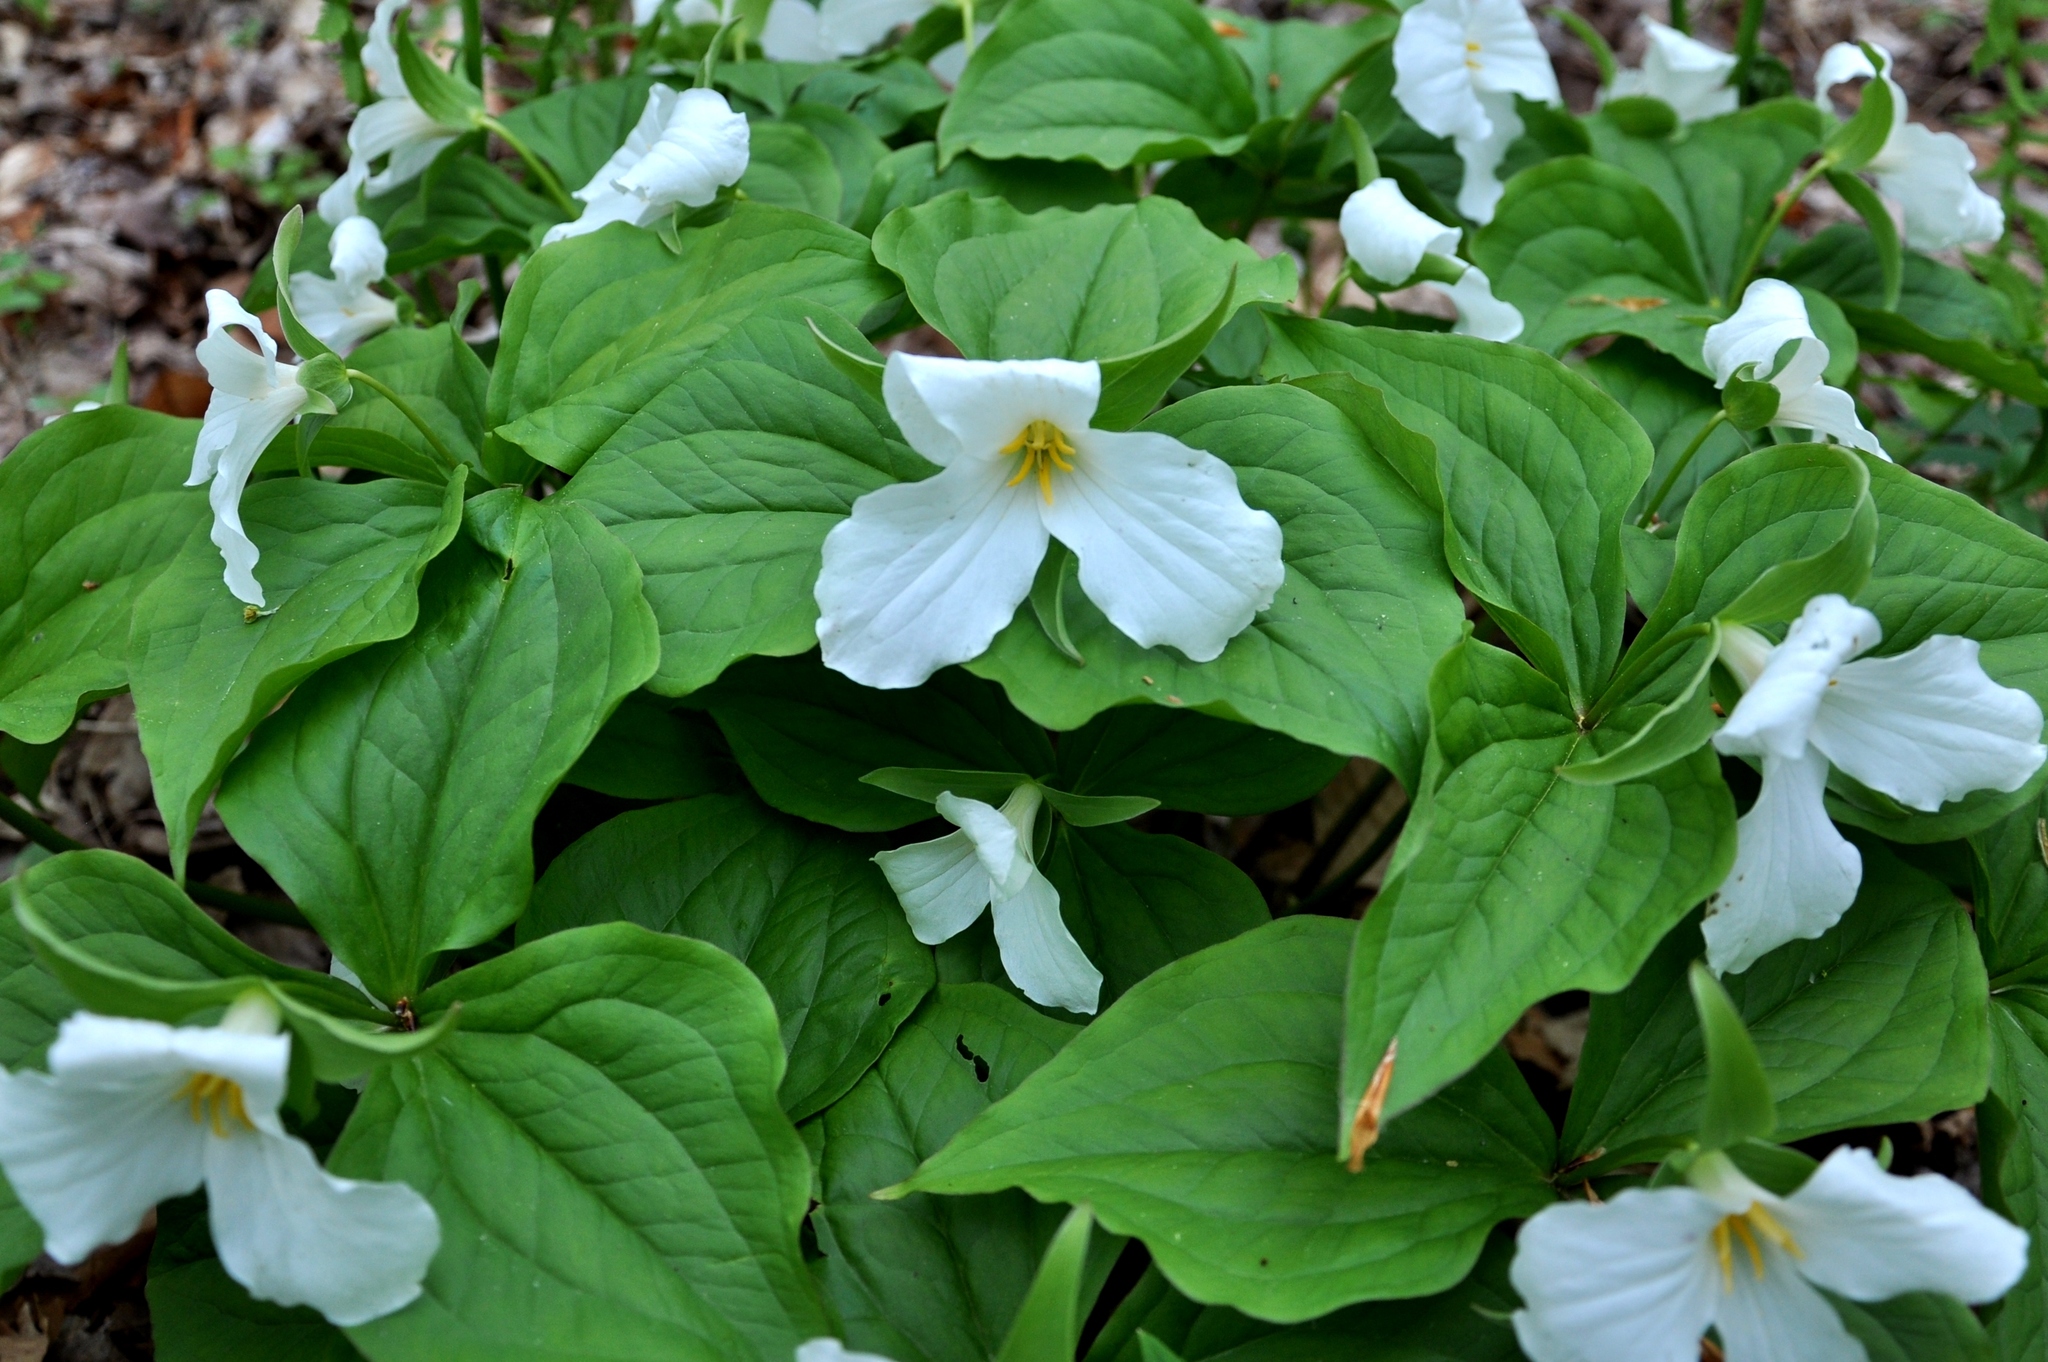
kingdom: Plantae
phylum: Tracheophyta
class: Liliopsida
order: Liliales
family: Melanthiaceae
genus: Trillium
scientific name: Trillium grandiflorum
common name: Great white trillium
